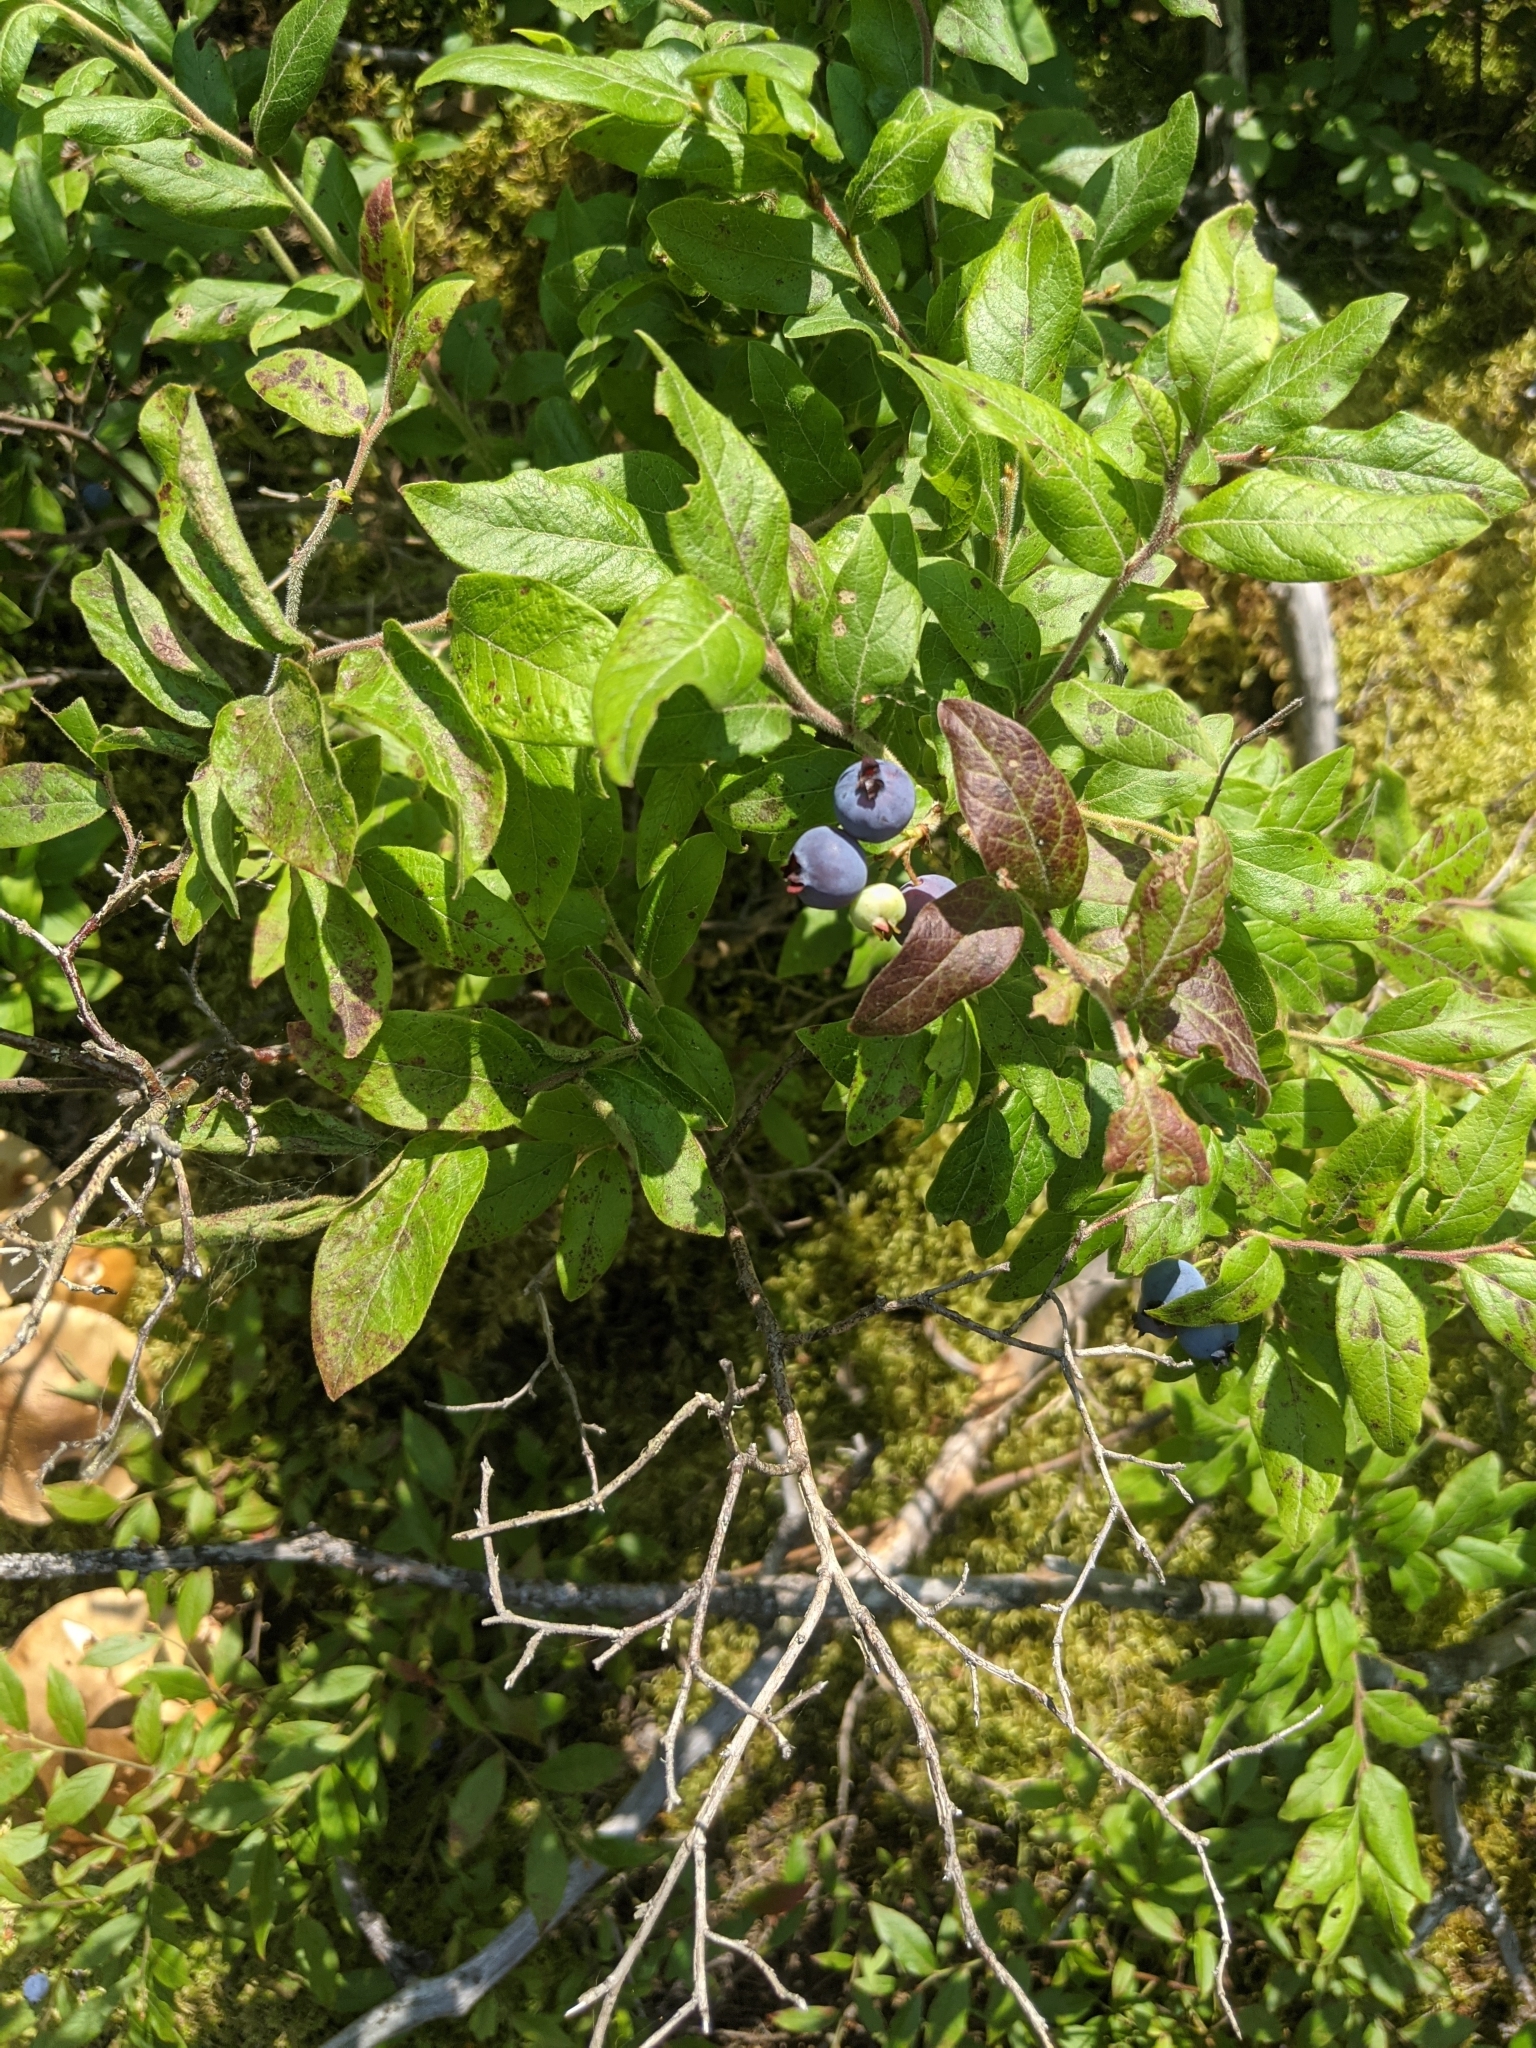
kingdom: Plantae
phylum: Tracheophyta
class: Magnoliopsida
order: Ericales
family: Ericaceae
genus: Vaccinium
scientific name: Vaccinium myrtilloides
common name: Canada blueberry
